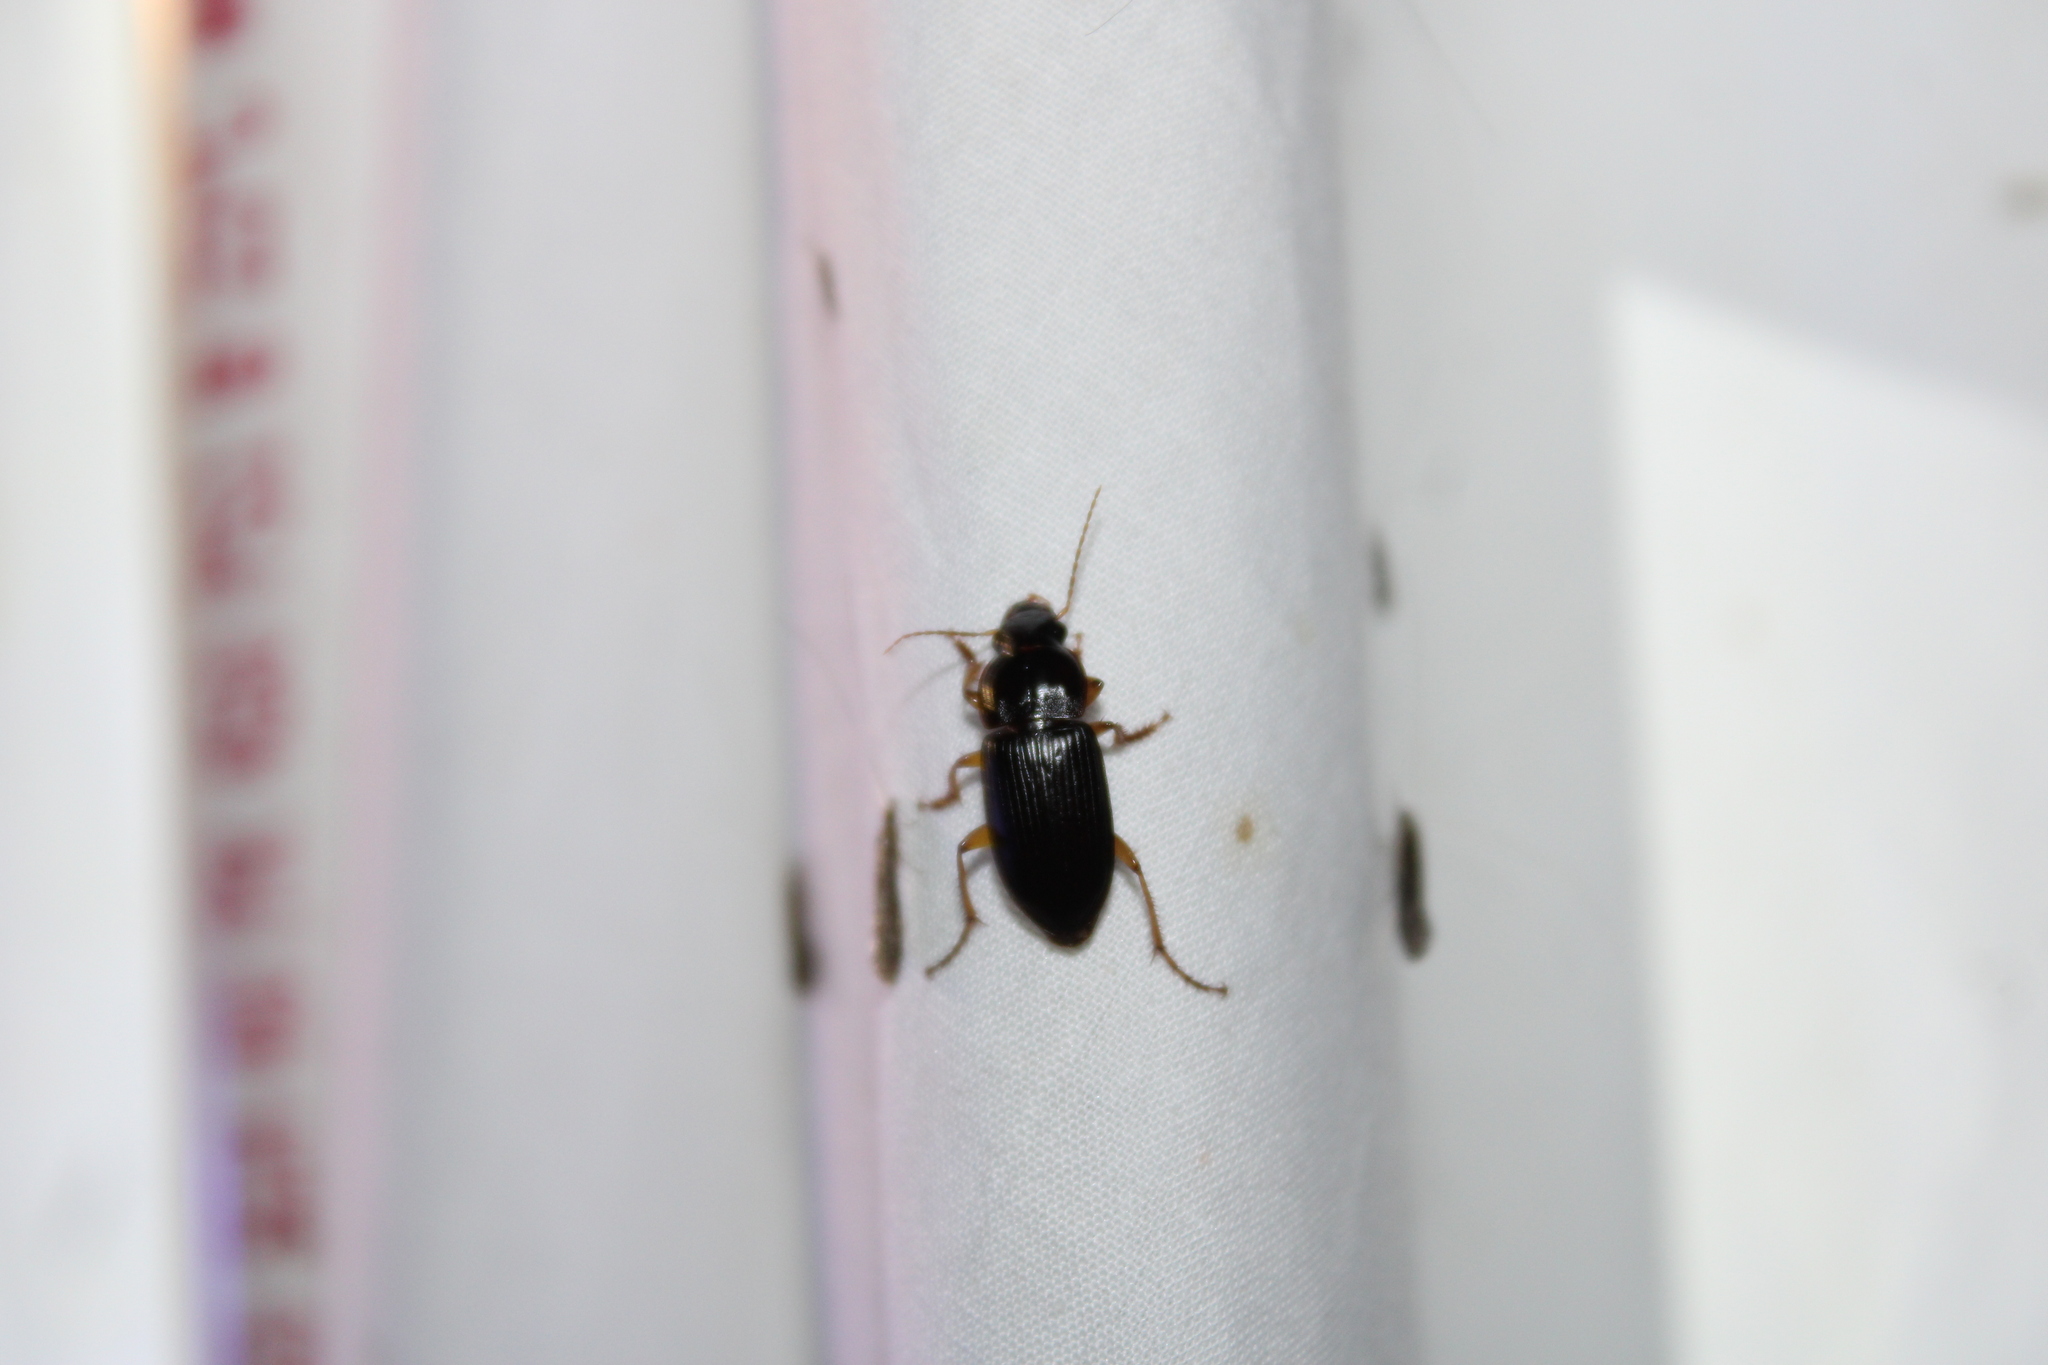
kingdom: Animalia
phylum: Arthropoda
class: Insecta
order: Coleoptera
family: Carabidae
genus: Harpalus
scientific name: Harpalus pensylvanicus
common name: Pennsylvania dingy ground beetle
